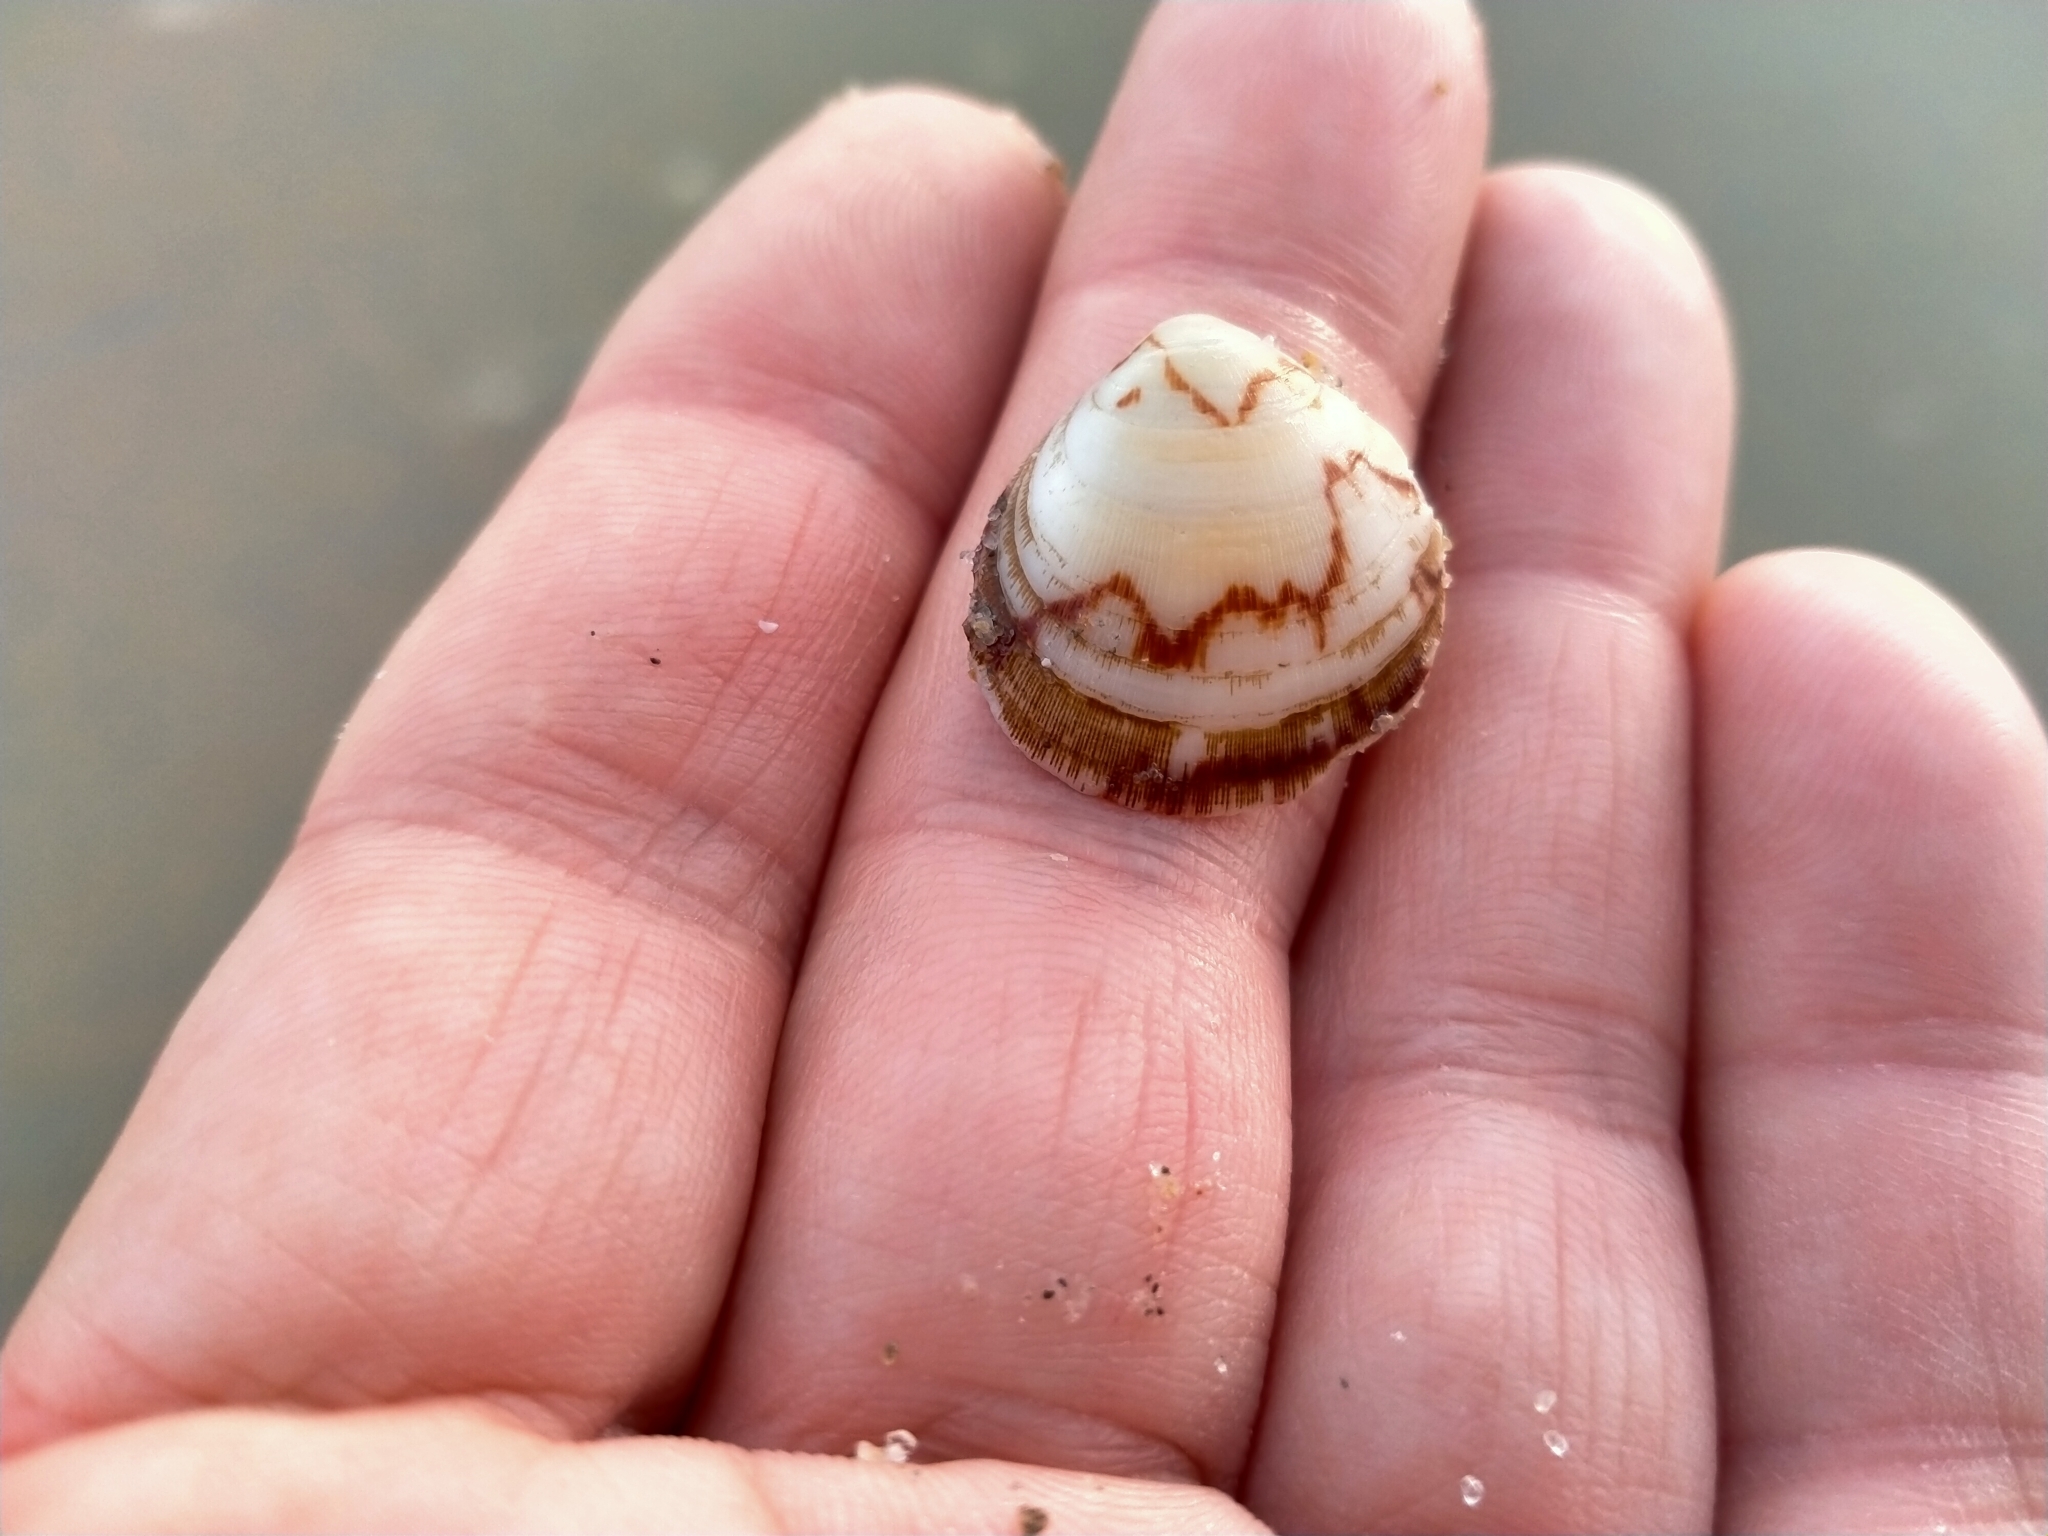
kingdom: Animalia
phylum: Mollusca
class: Bivalvia
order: Arcida
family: Glycymerididae
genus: Glycymeris
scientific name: Glycymeris modesta
